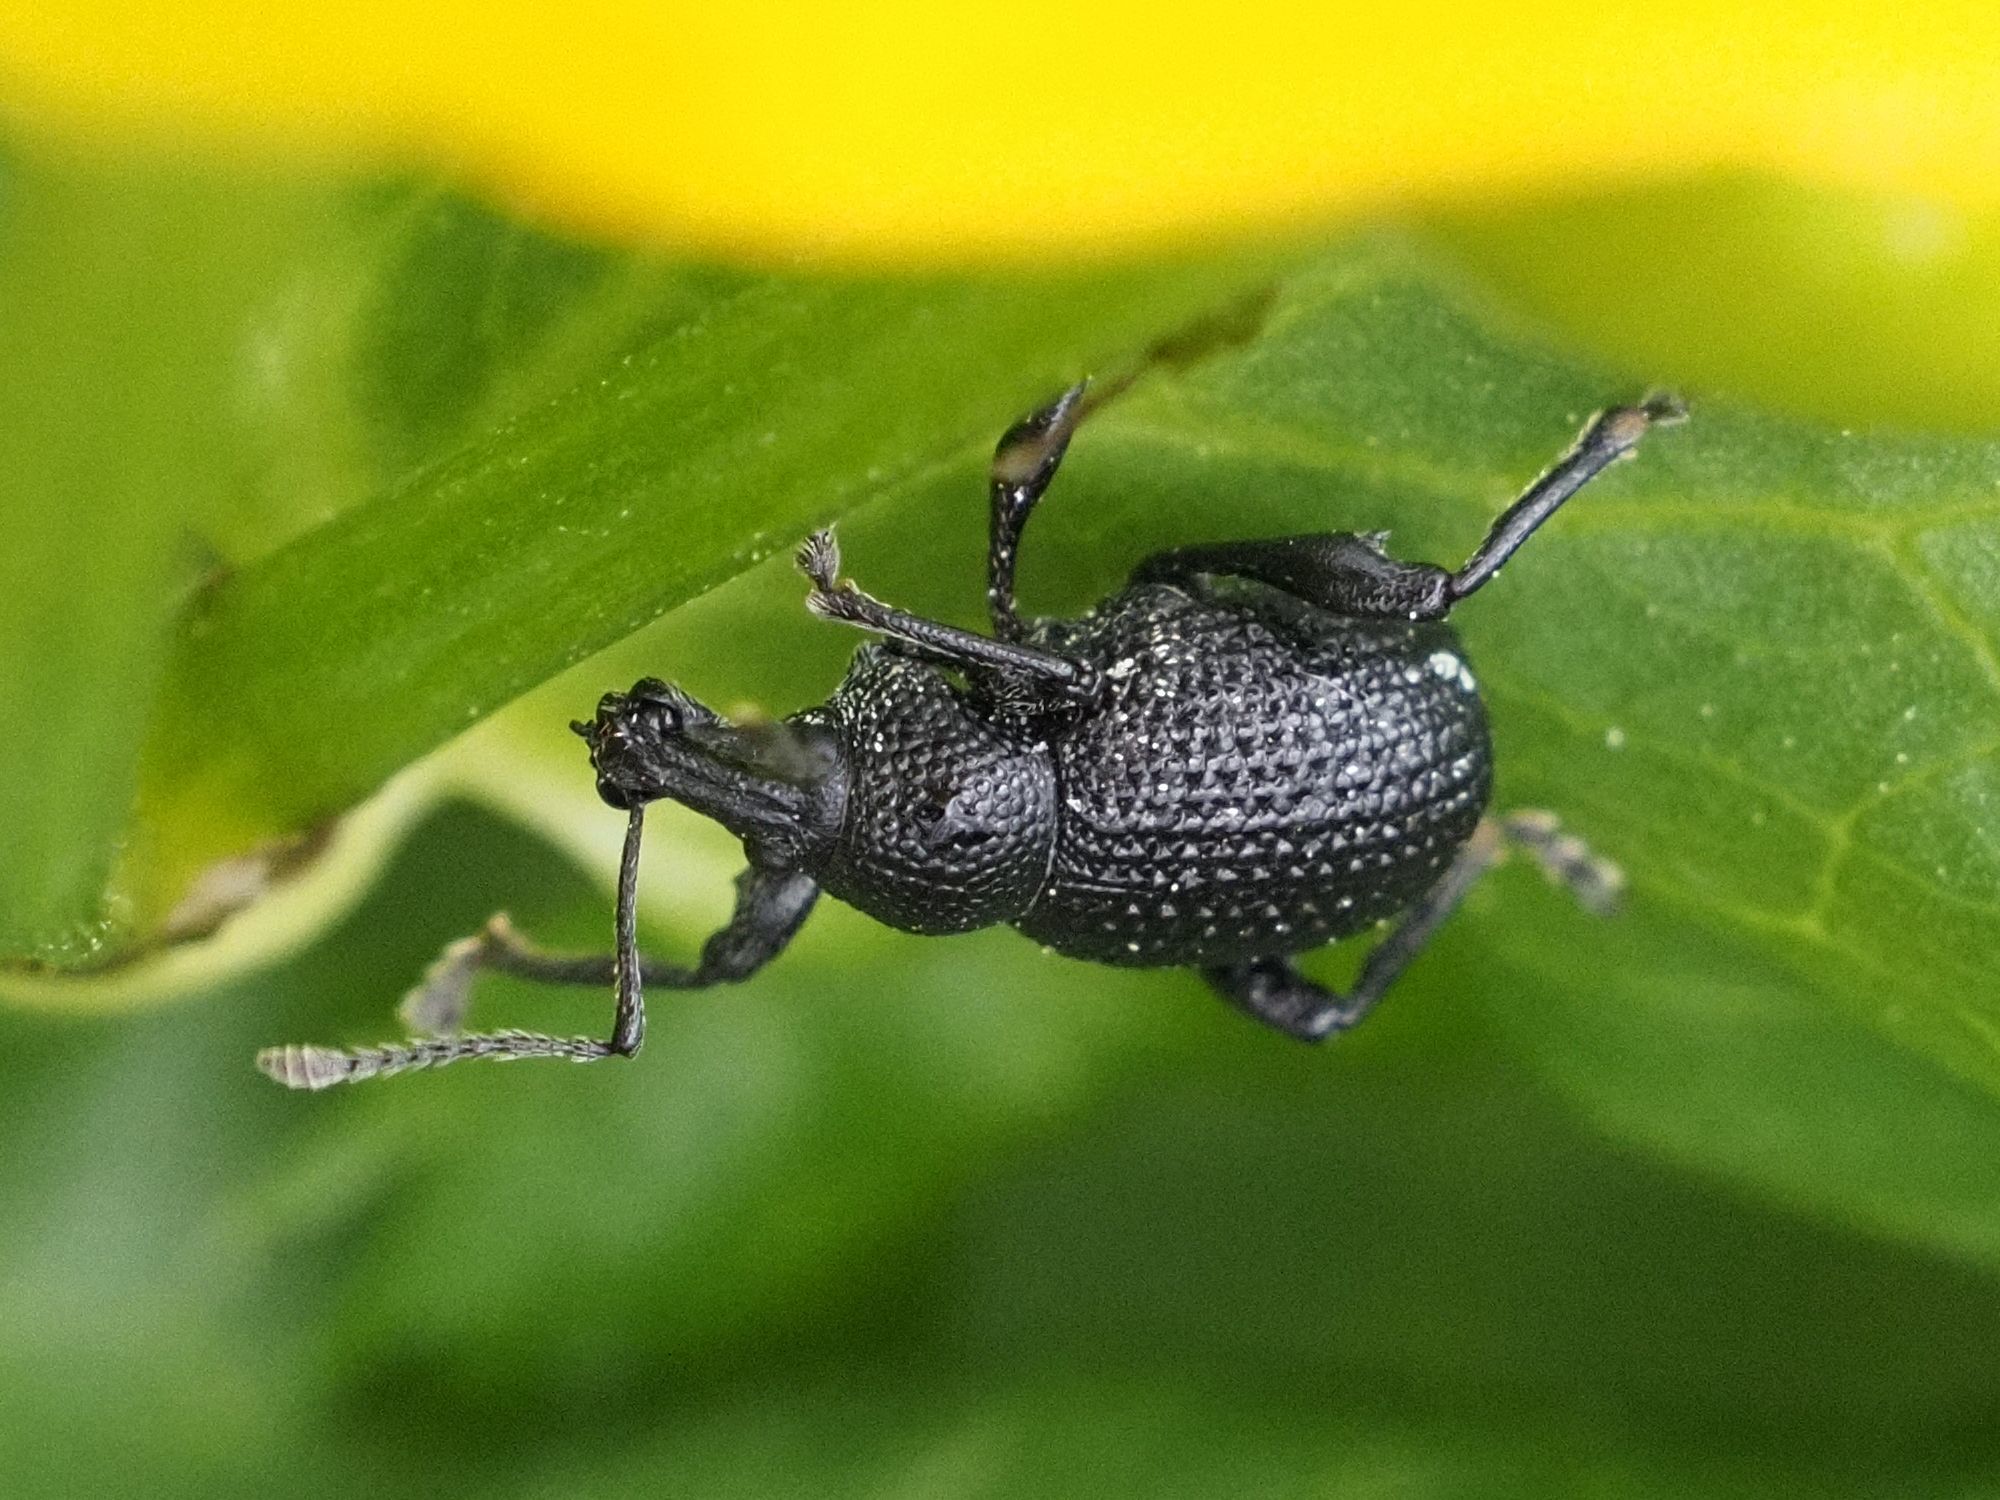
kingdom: Animalia
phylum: Arthropoda
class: Insecta
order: Coleoptera
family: Curculionidae
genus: Otiorhynchus
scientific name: Otiorhynchus gemmatus
